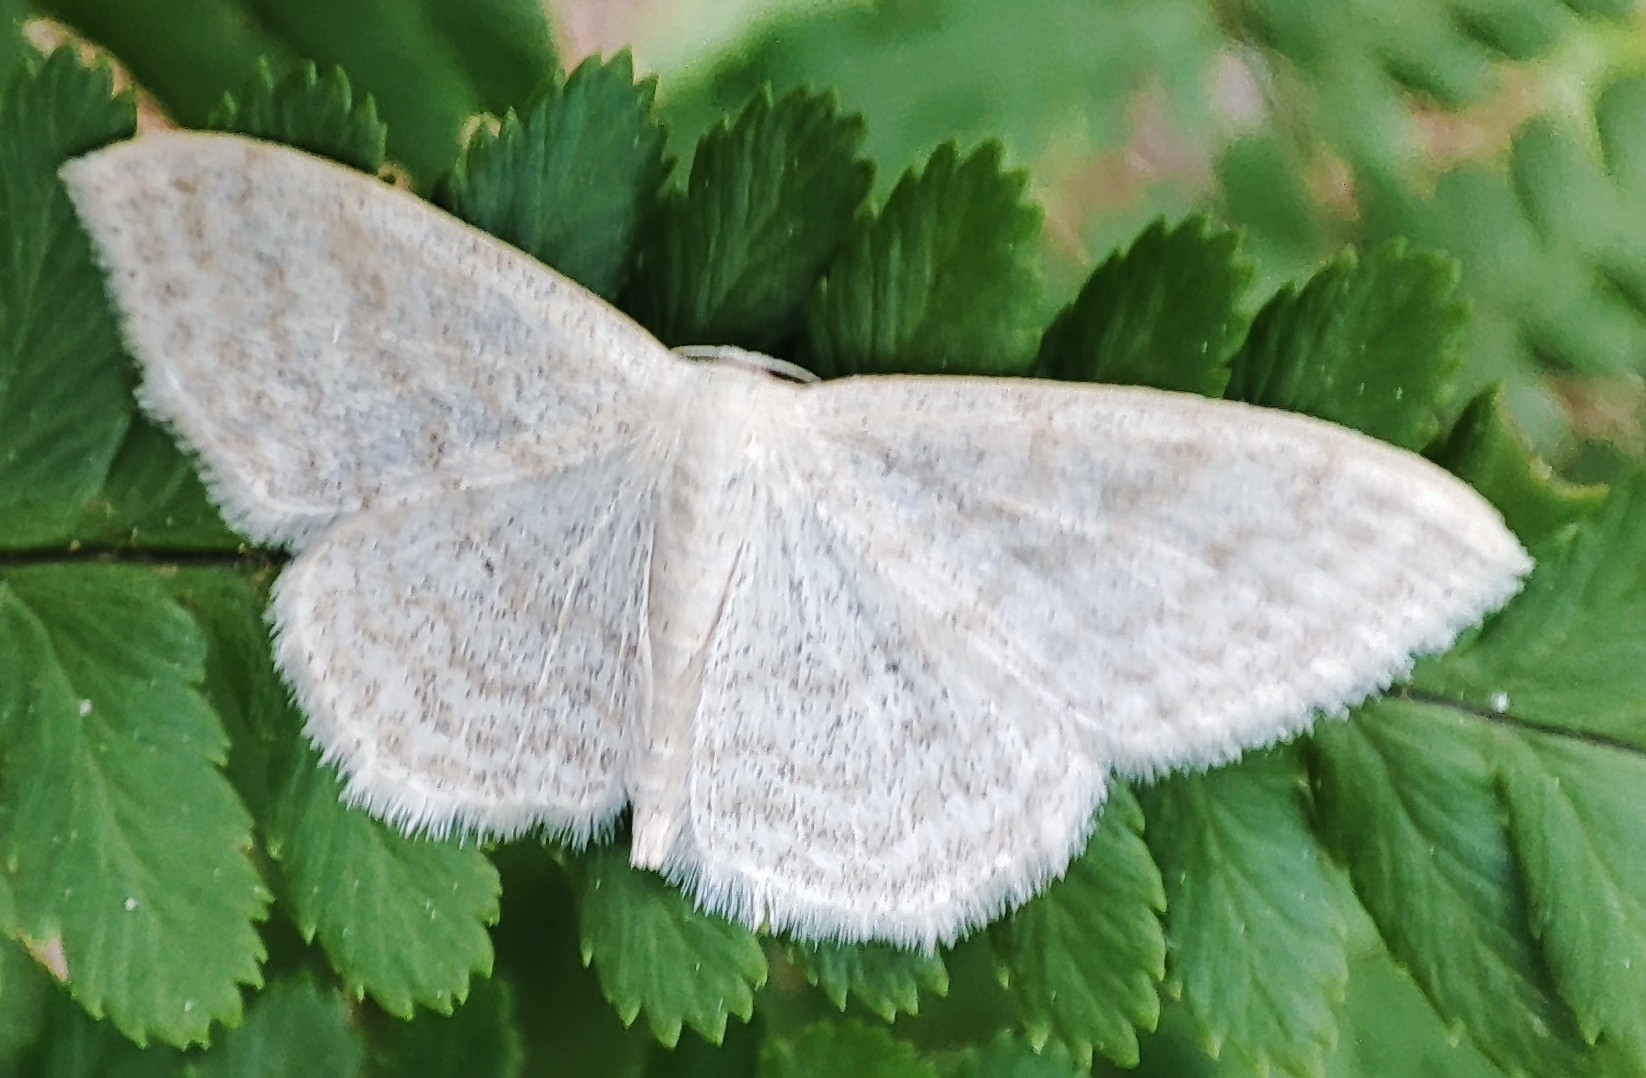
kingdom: Animalia
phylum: Arthropoda
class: Insecta
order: Lepidoptera
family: Geometridae
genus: Scopula
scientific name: Scopula floslactata
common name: Cream wave
